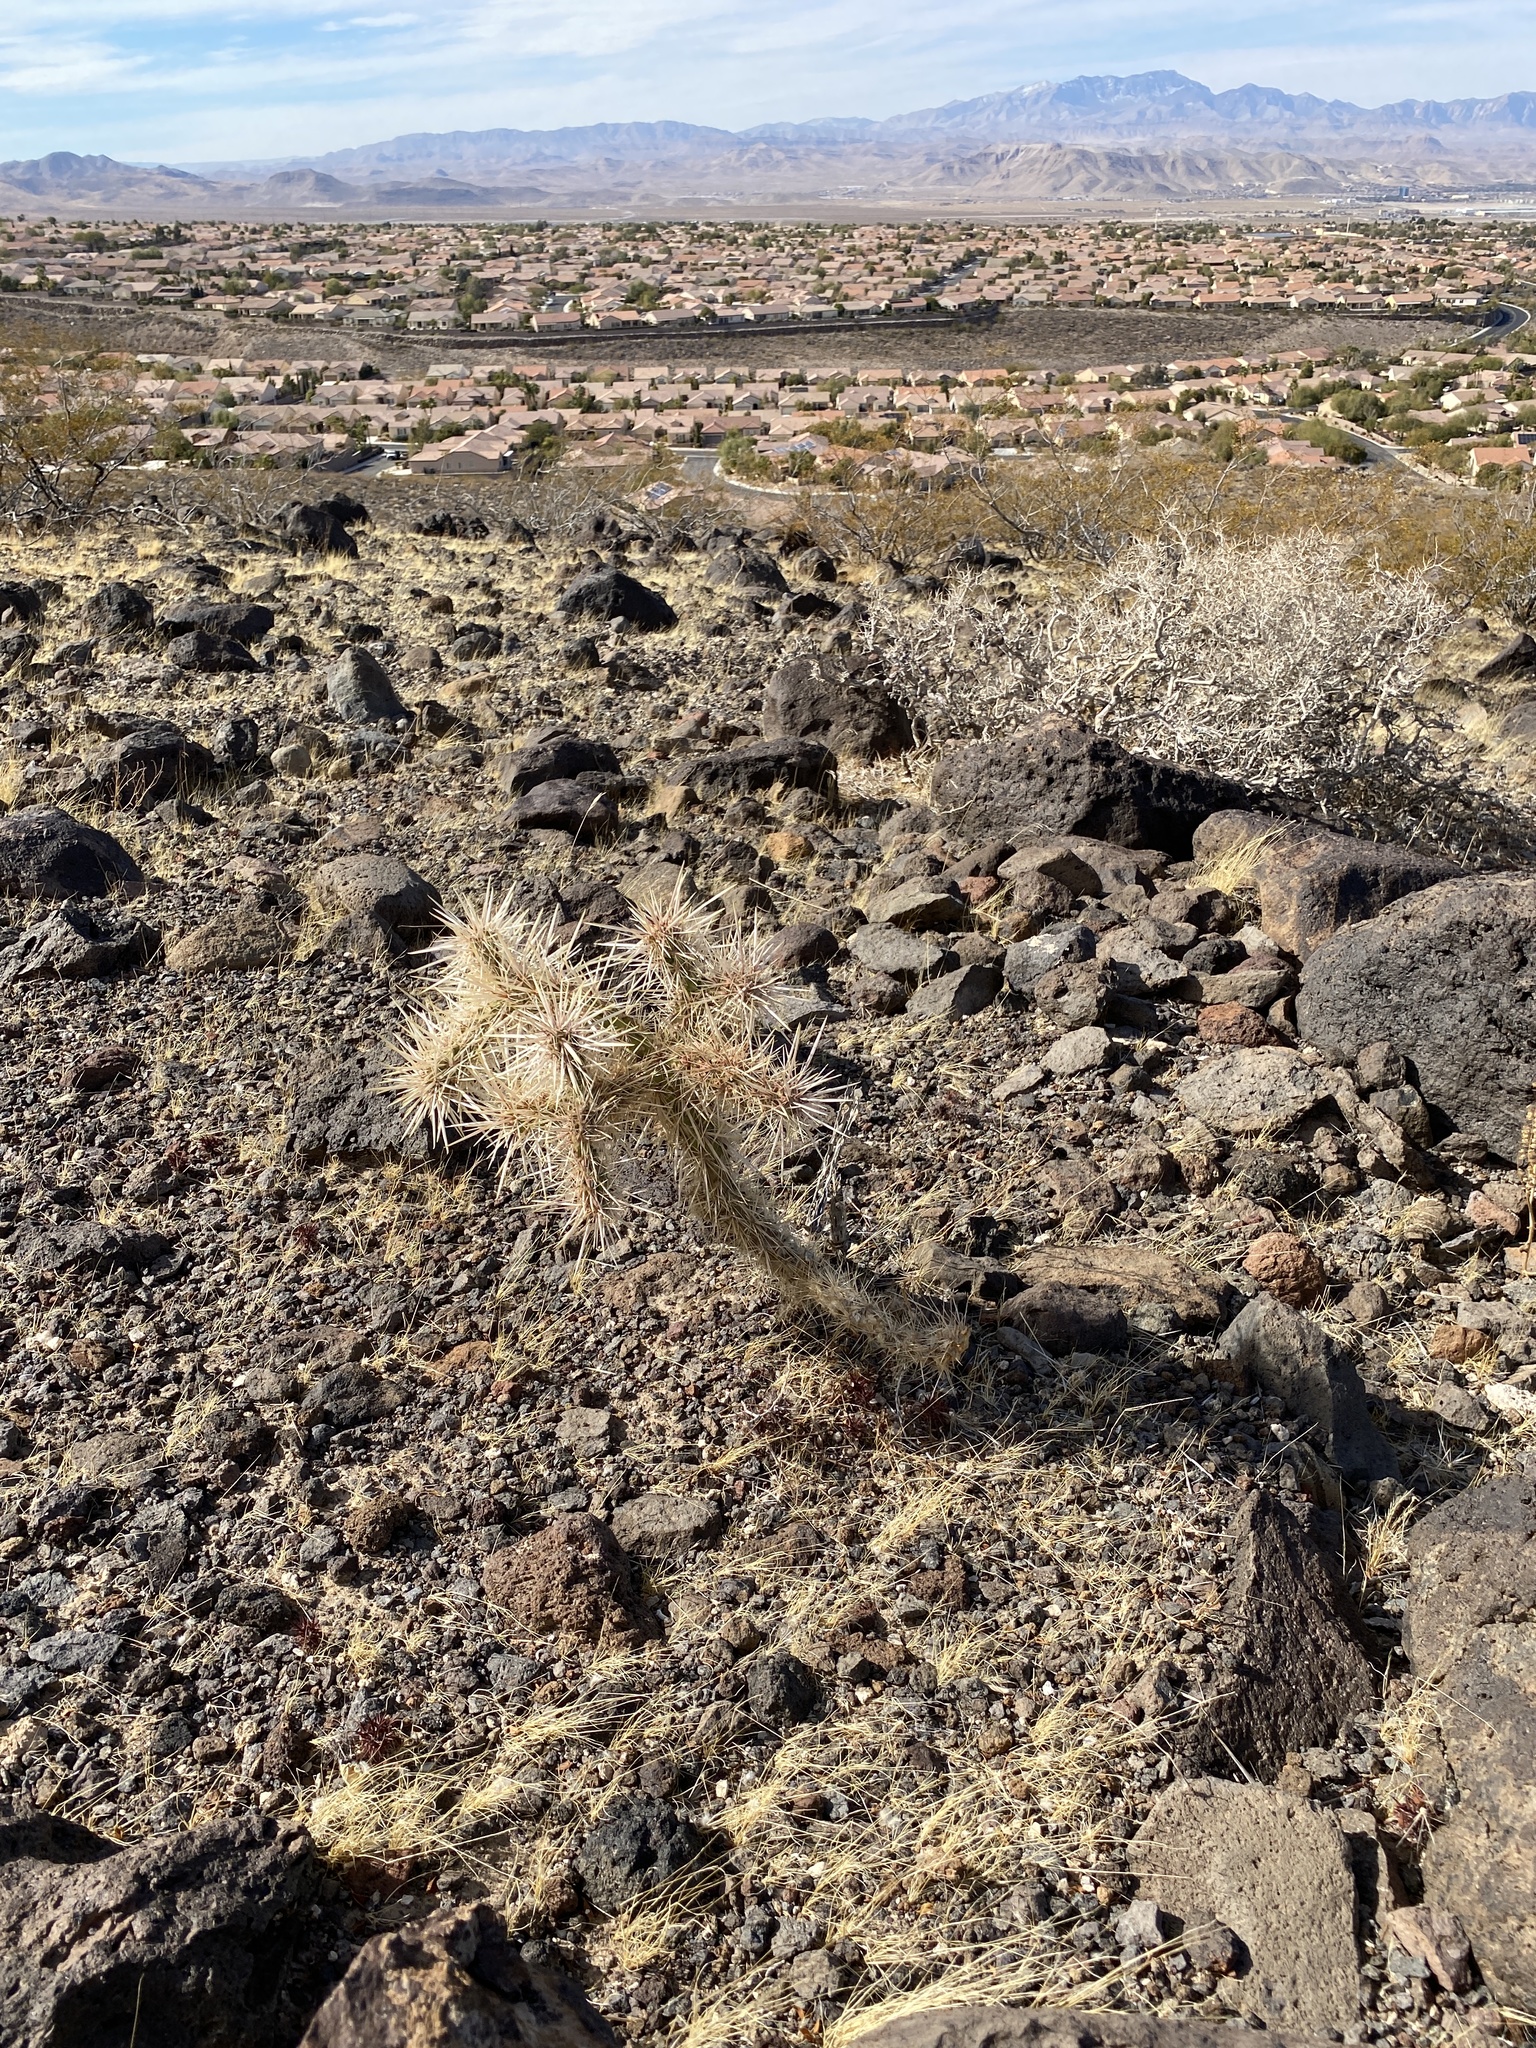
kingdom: Plantae
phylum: Tracheophyta
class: Magnoliopsida
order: Caryophyllales
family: Cactaceae
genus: Cylindropuntia
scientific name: Cylindropuntia echinocarpa
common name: Ground cholla
